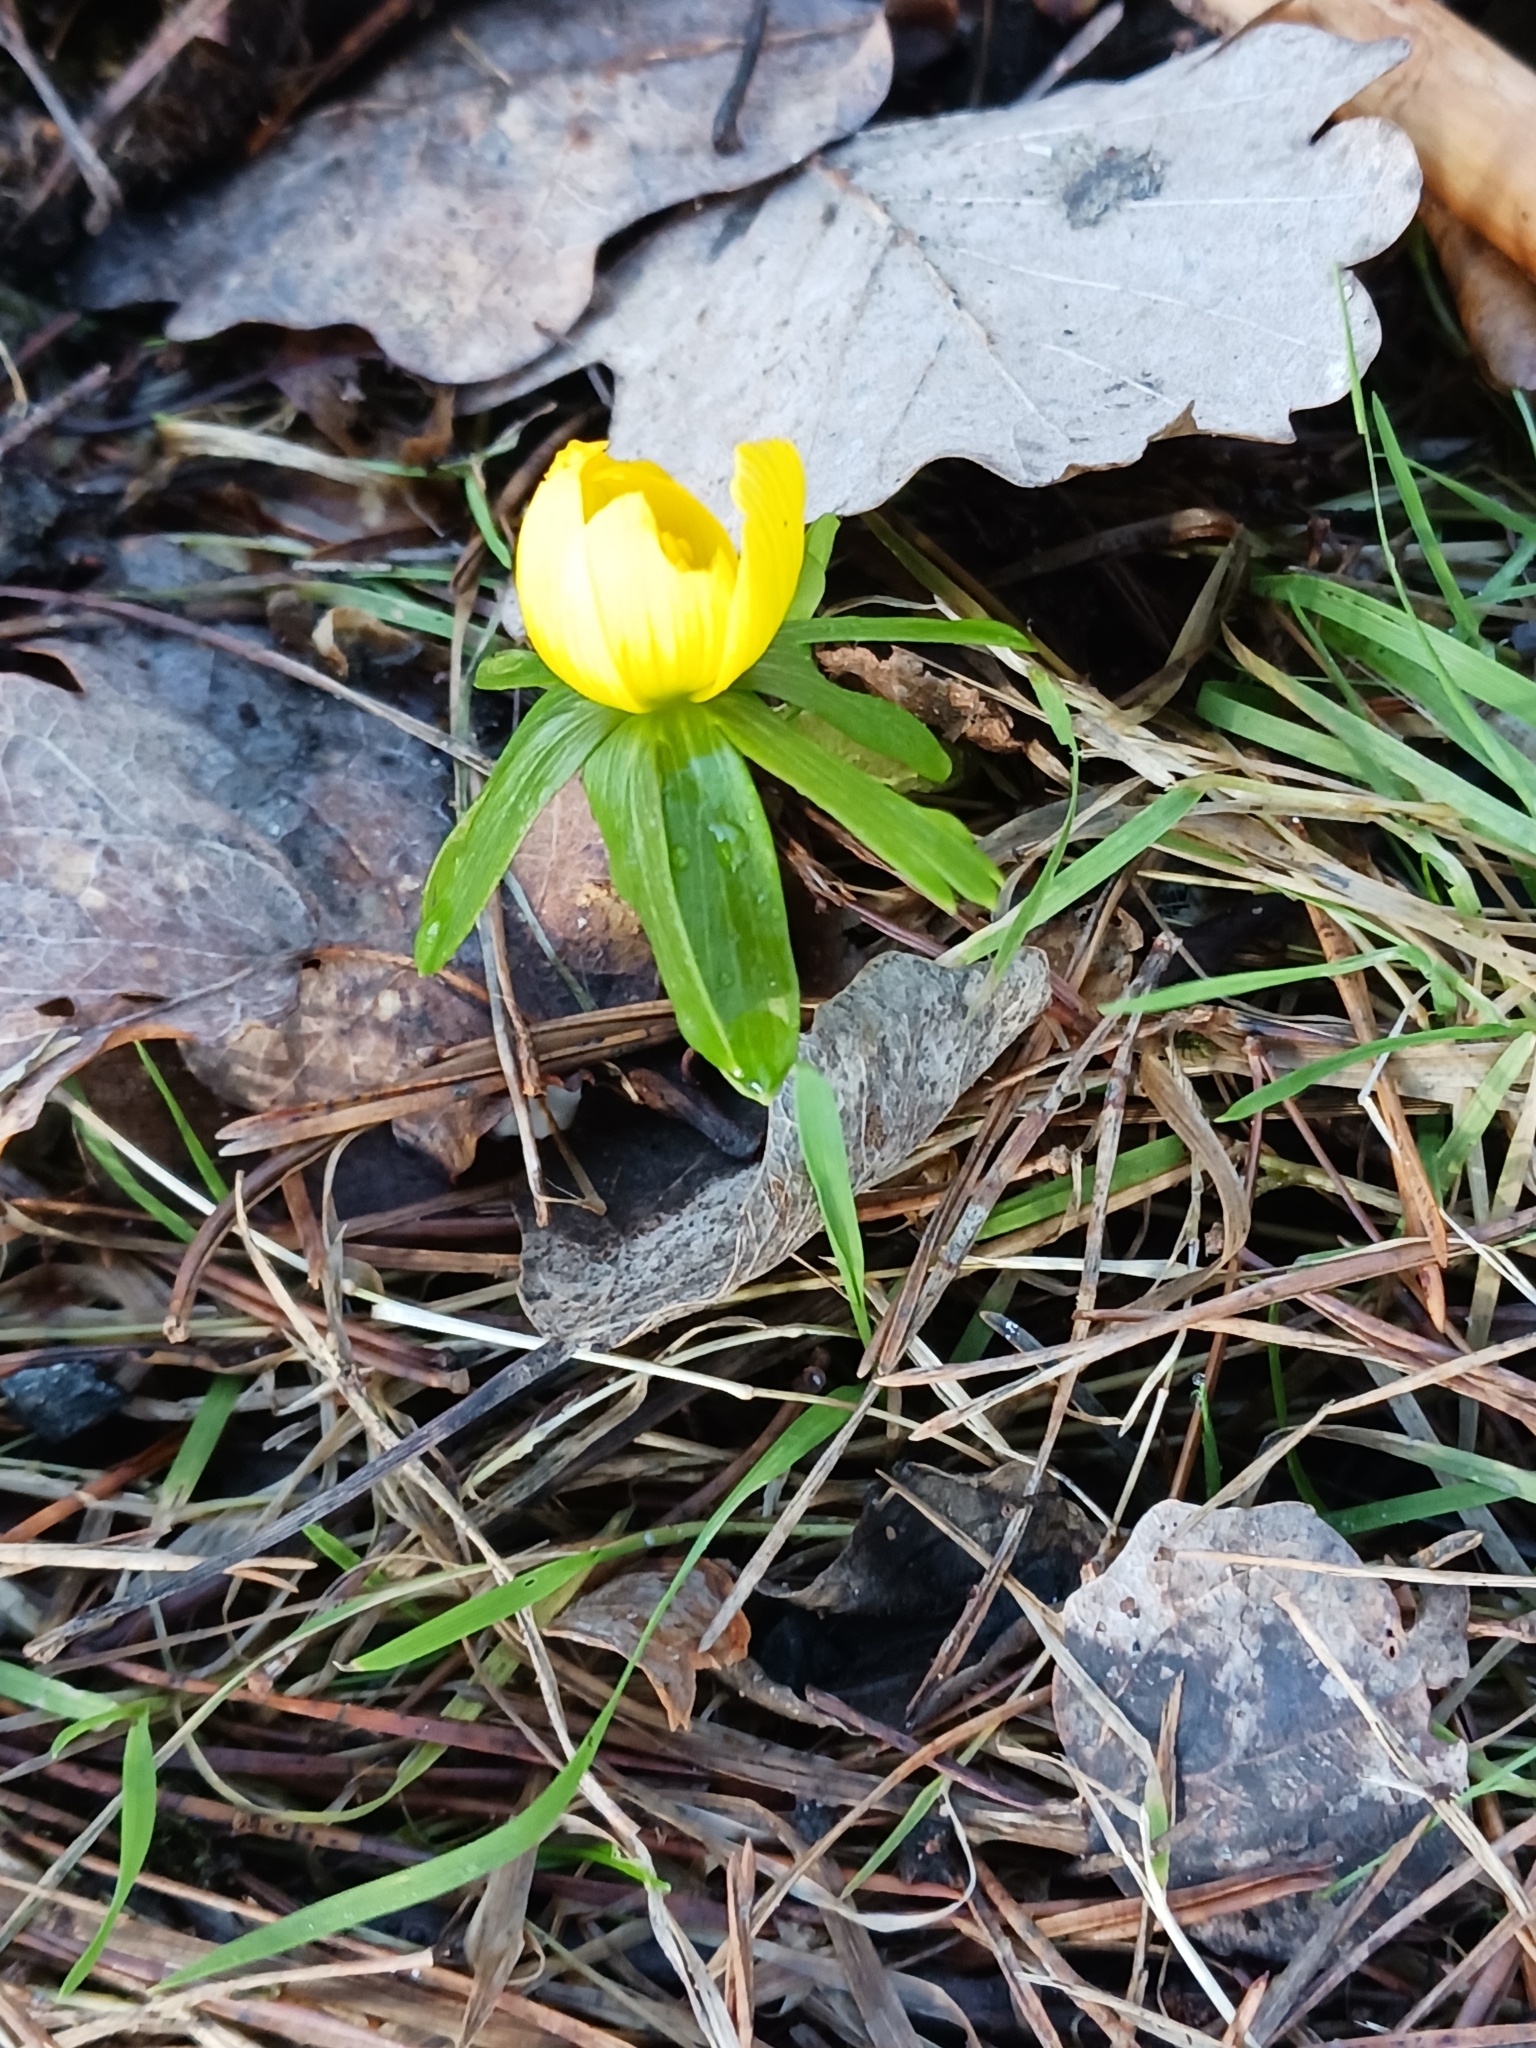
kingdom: Plantae
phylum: Tracheophyta
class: Magnoliopsida
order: Ranunculales
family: Ranunculaceae
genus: Eranthis
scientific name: Eranthis hyemalis
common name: Winter aconite
